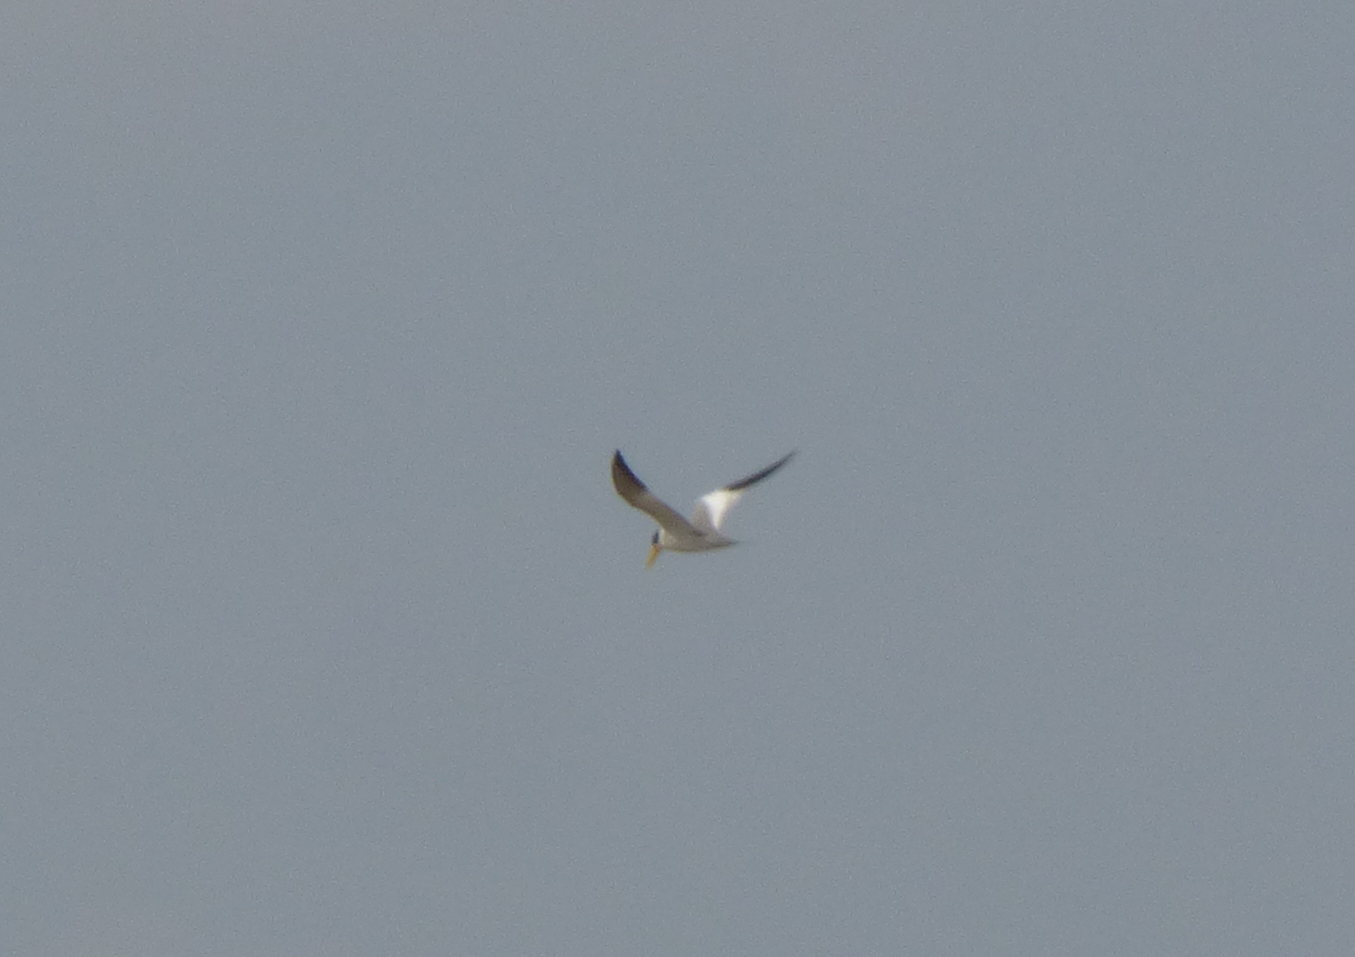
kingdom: Animalia
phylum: Chordata
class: Aves
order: Charadriiformes
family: Laridae
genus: Phaetusa
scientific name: Phaetusa simplex
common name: Large-billed tern
